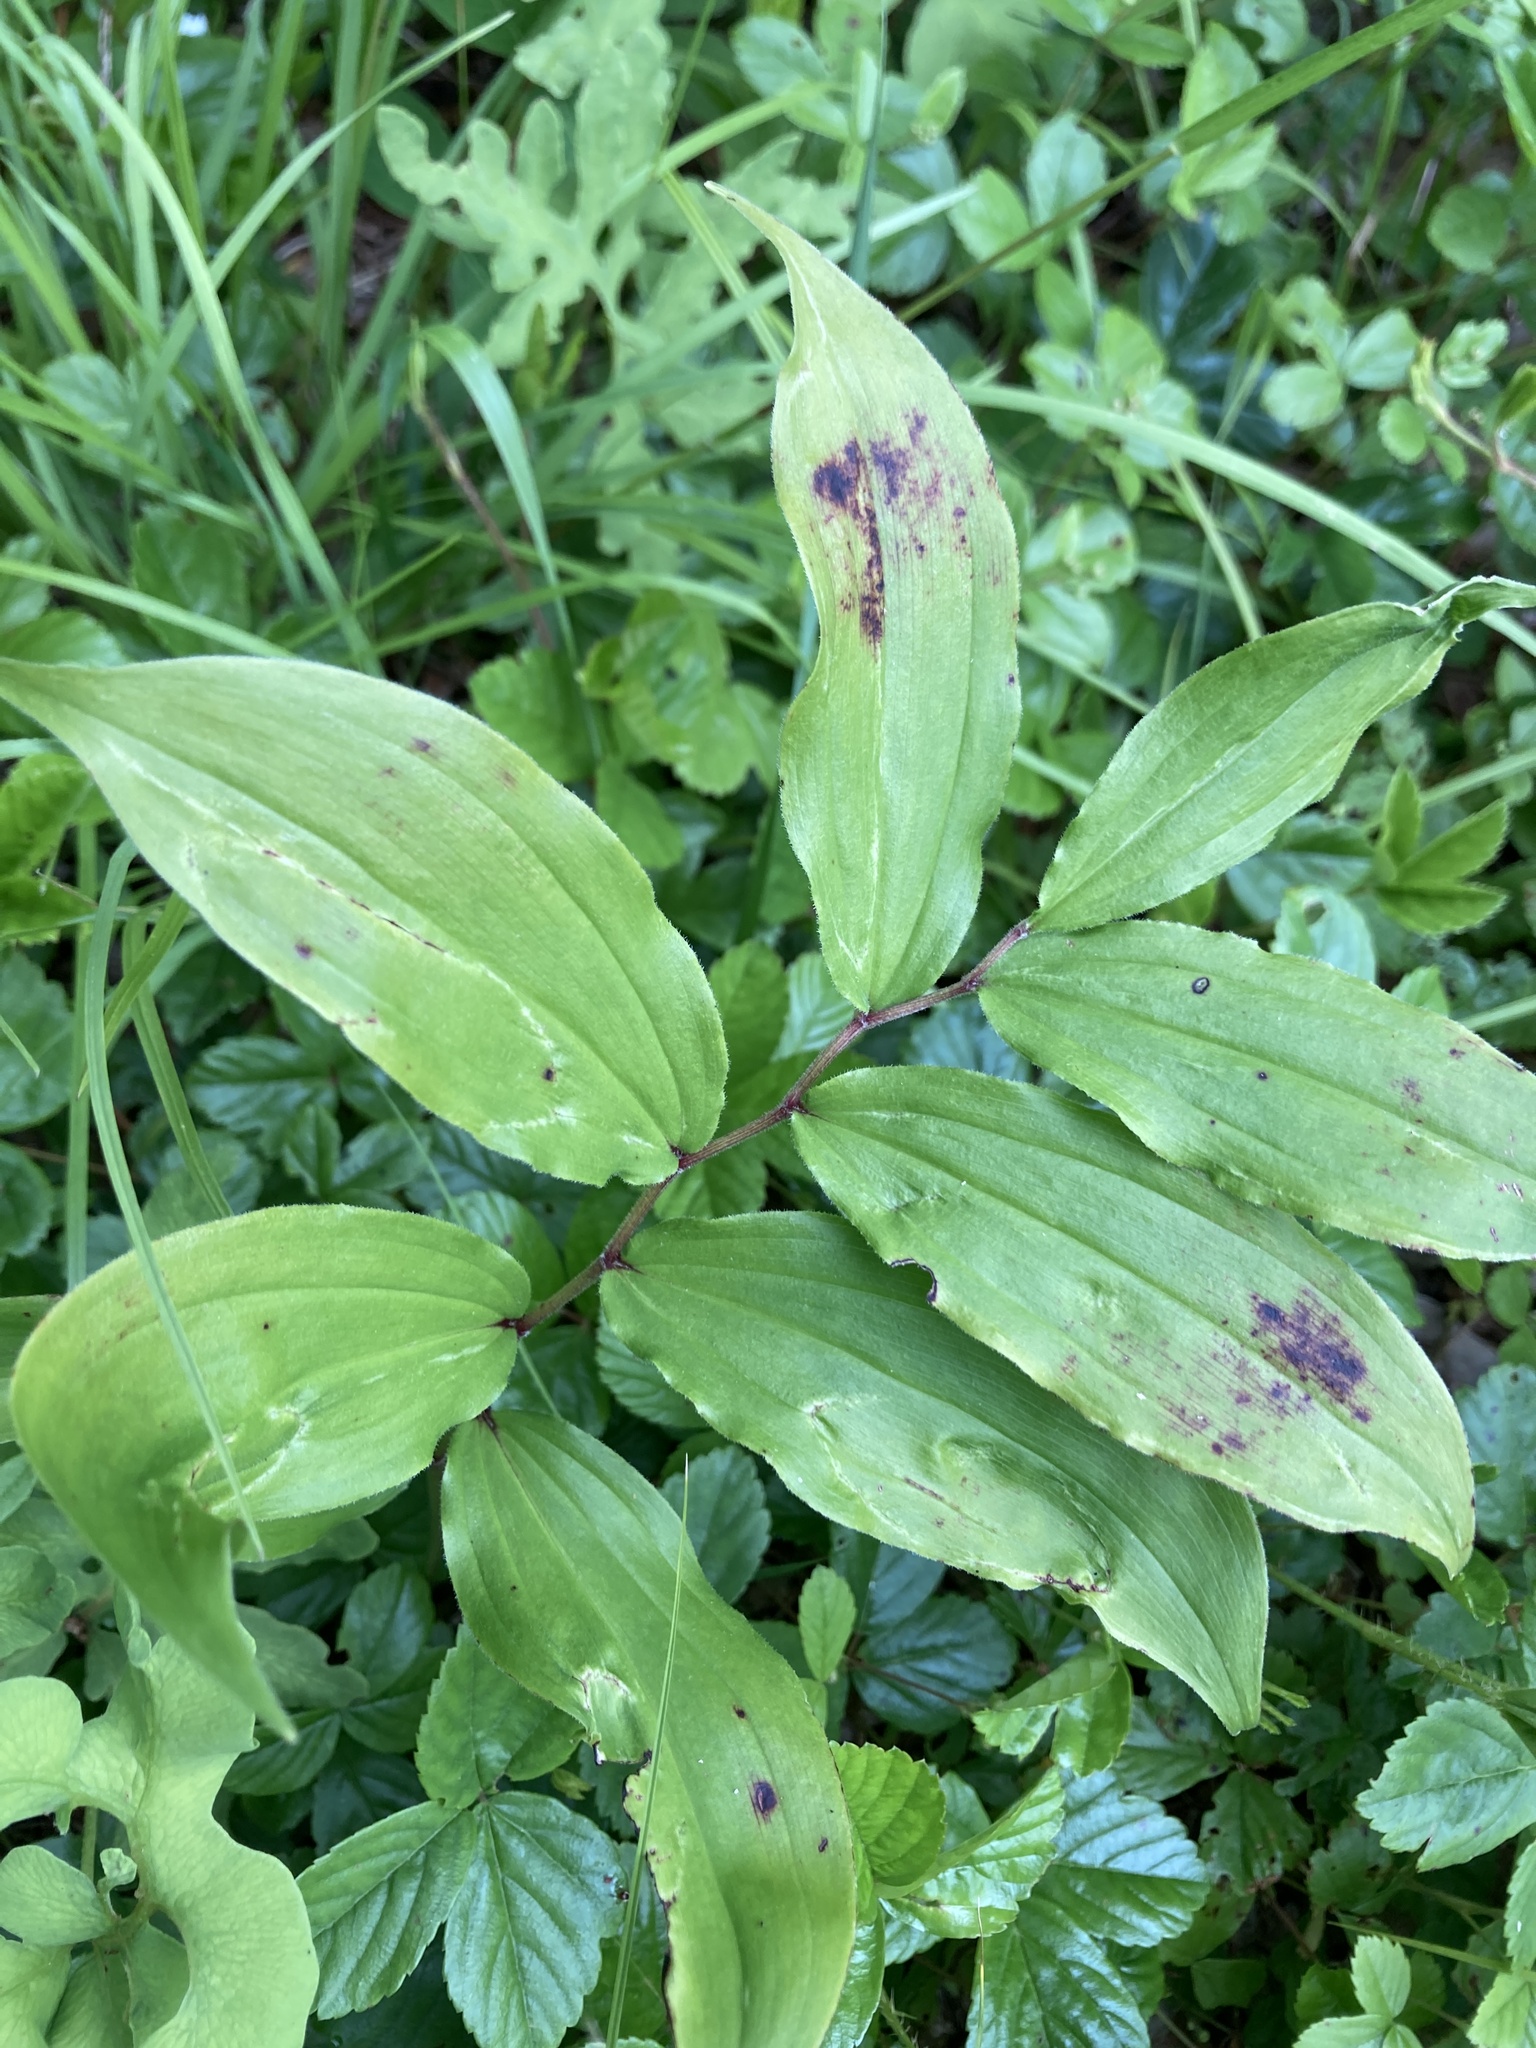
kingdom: Plantae
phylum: Tracheophyta
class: Liliopsida
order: Asparagales
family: Asparagaceae
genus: Maianthemum
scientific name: Maianthemum racemosum
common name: False spikenard
